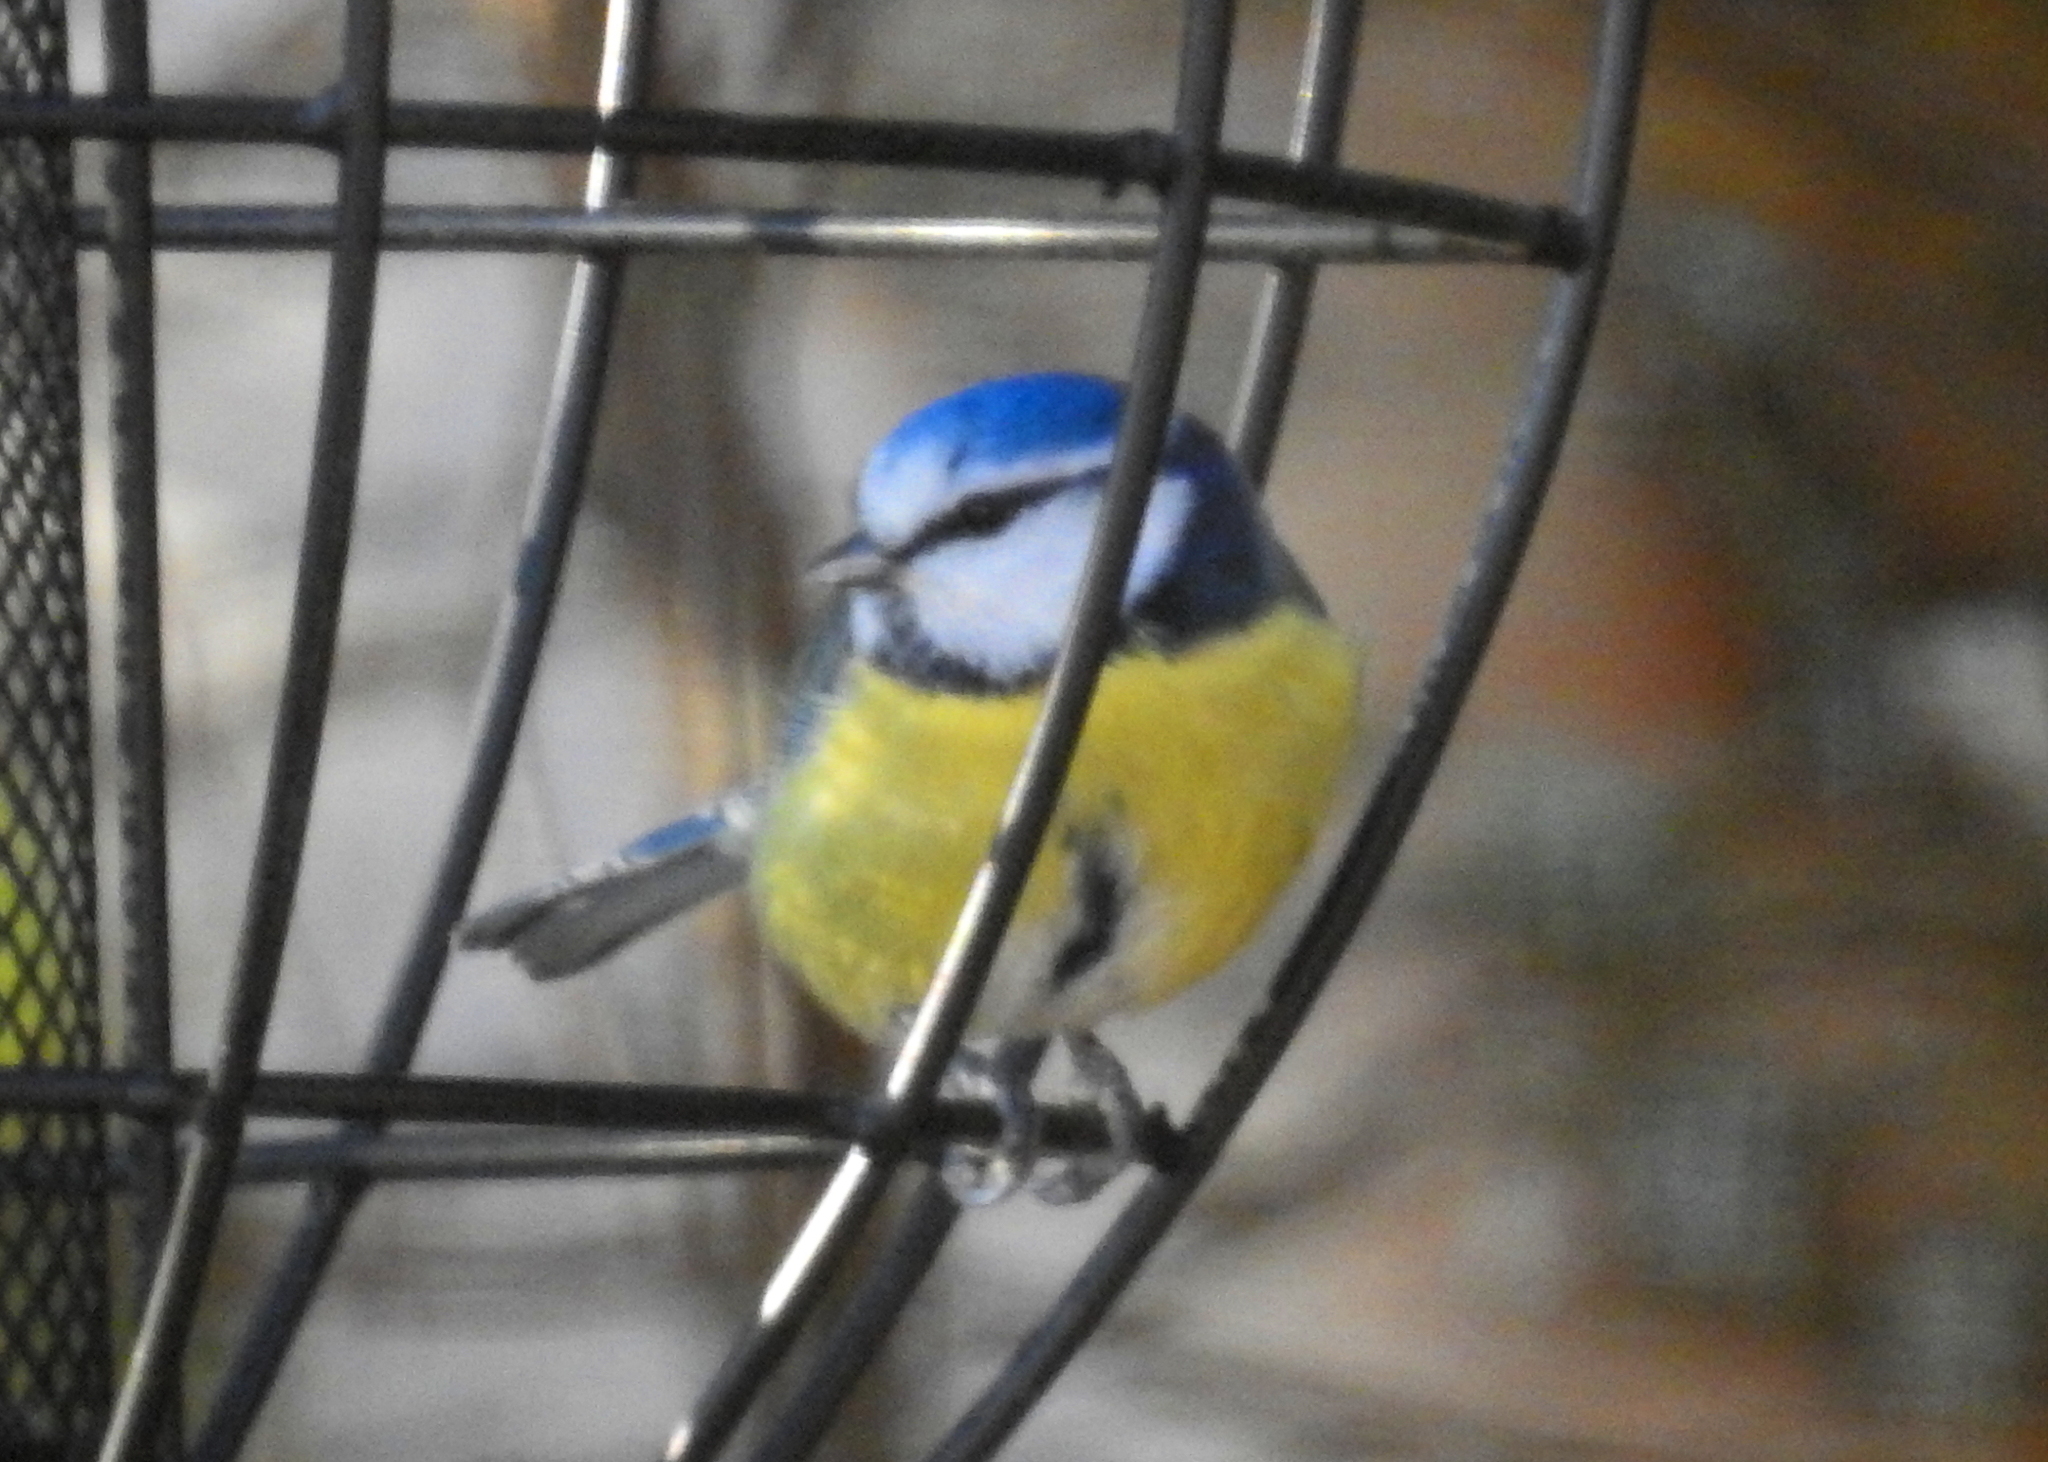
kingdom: Animalia
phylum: Chordata
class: Aves
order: Passeriformes
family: Paridae
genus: Cyanistes
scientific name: Cyanistes caeruleus
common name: Eurasian blue tit
